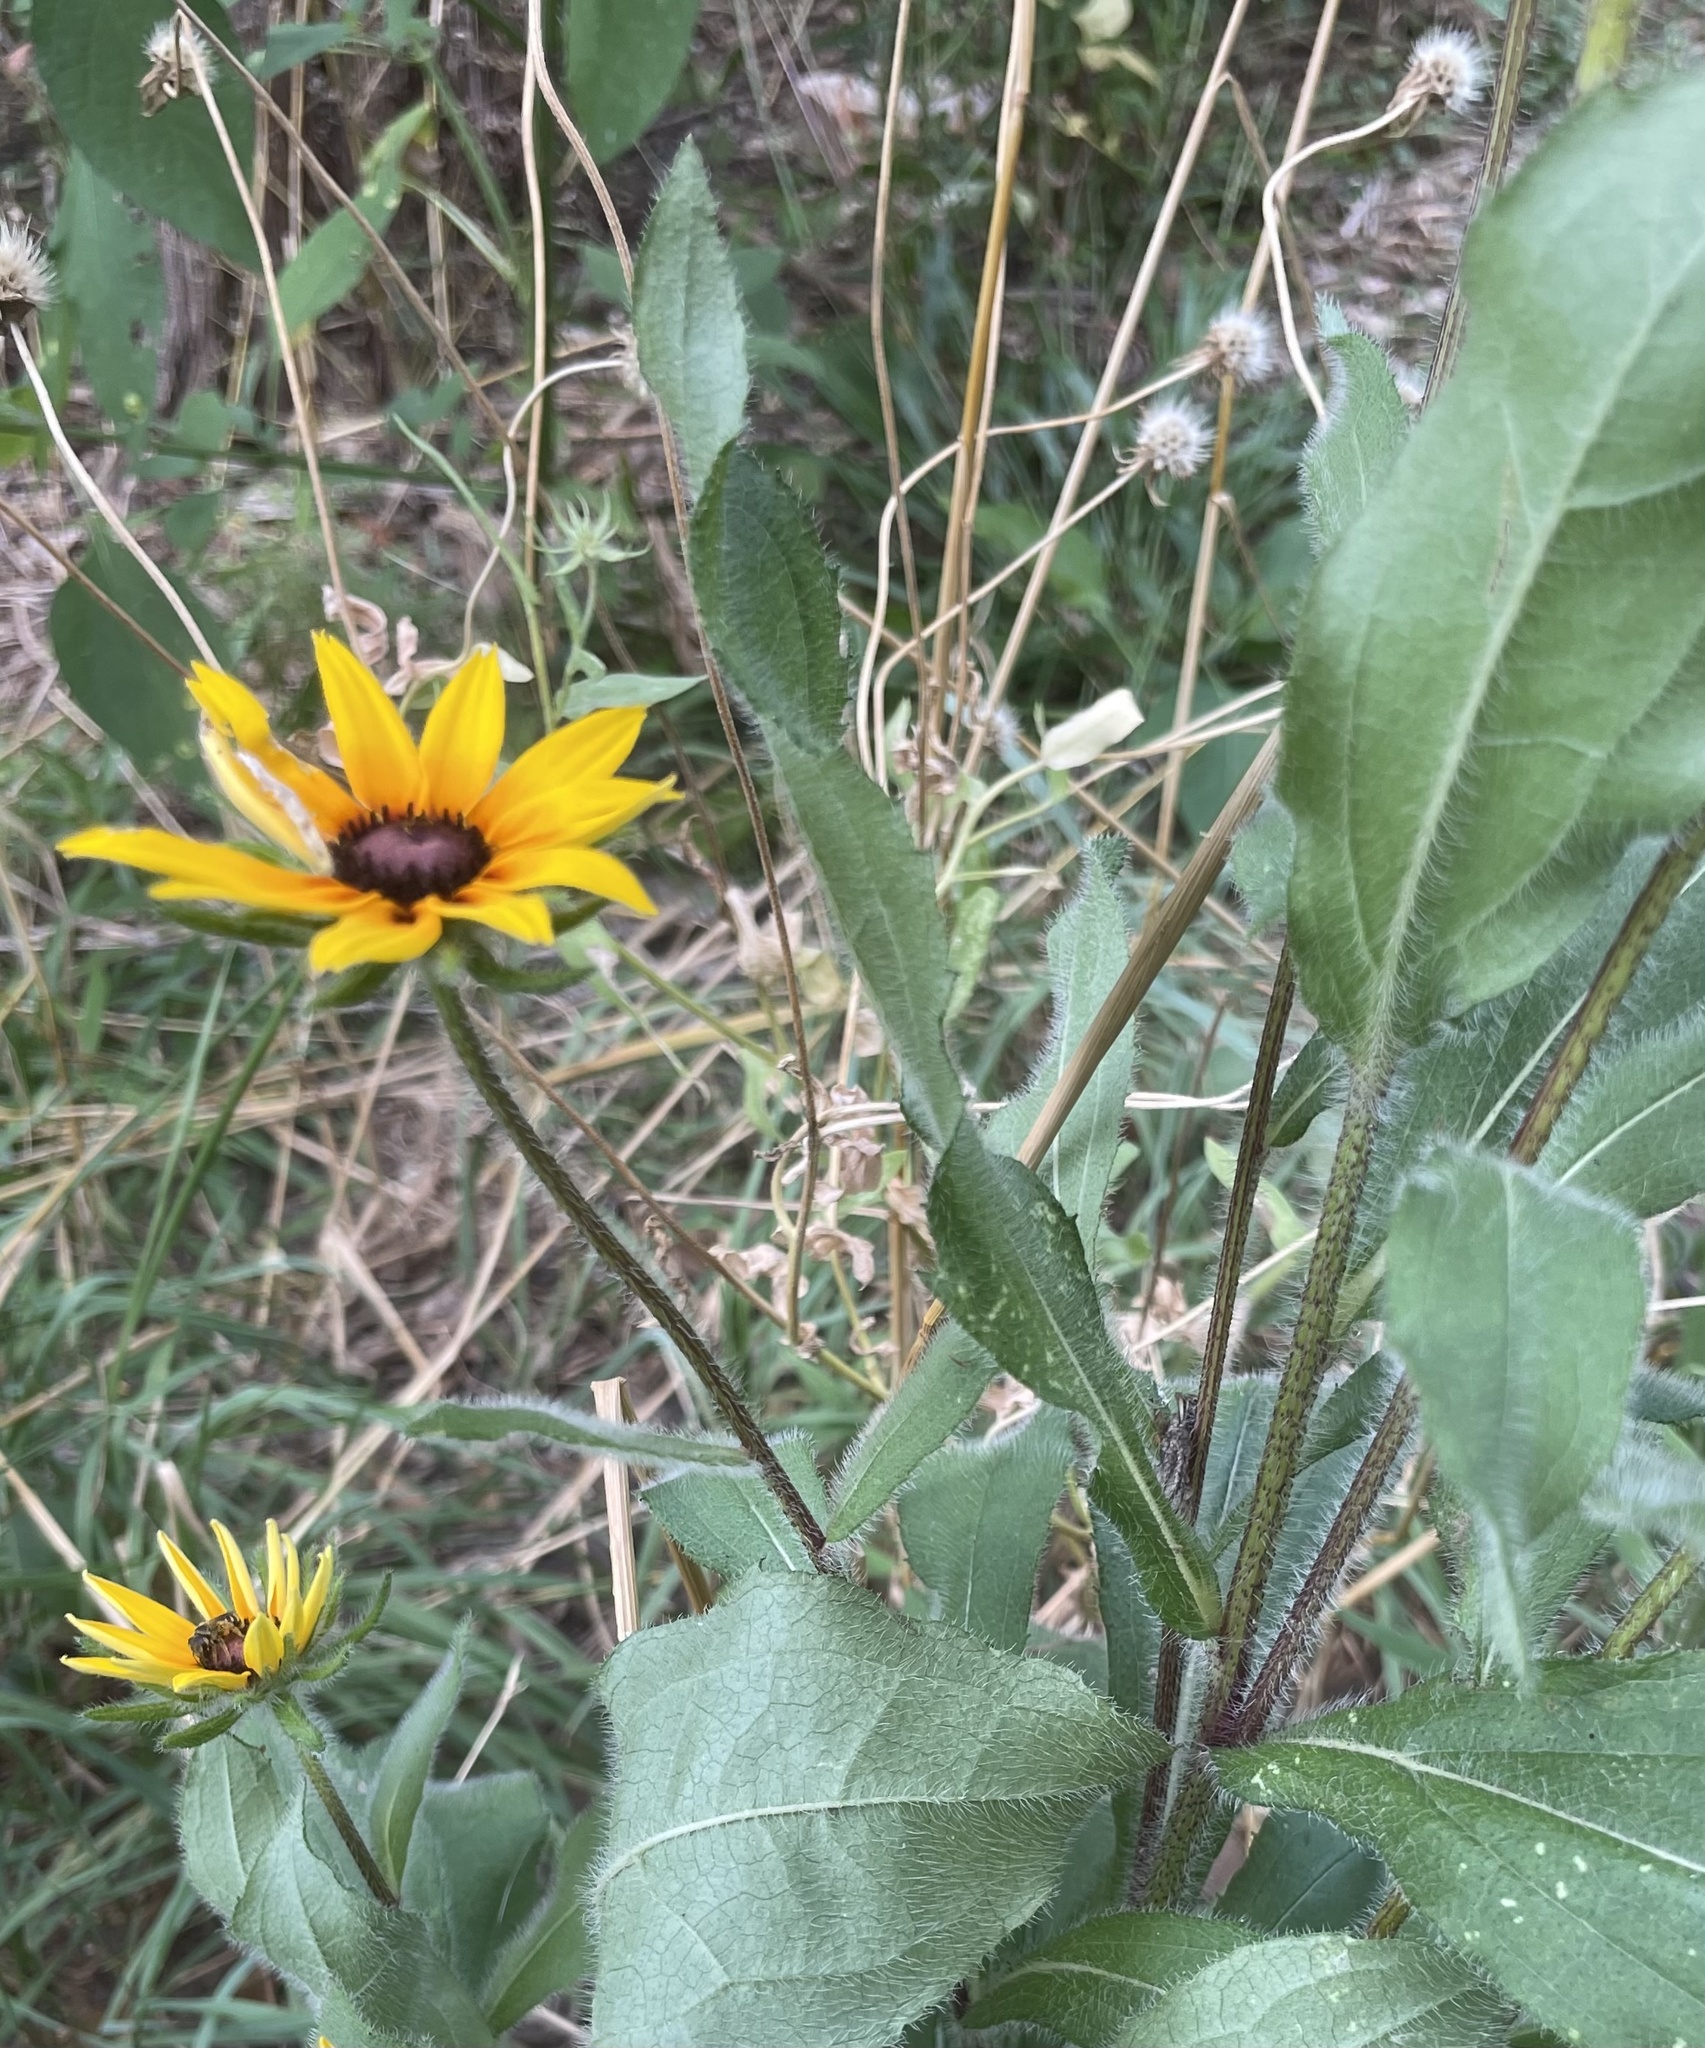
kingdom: Plantae
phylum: Tracheophyta
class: Magnoliopsida
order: Asterales
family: Asteraceae
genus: Rudbeckia
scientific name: Rudbeckia hirta
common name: Black-eyed-susan
